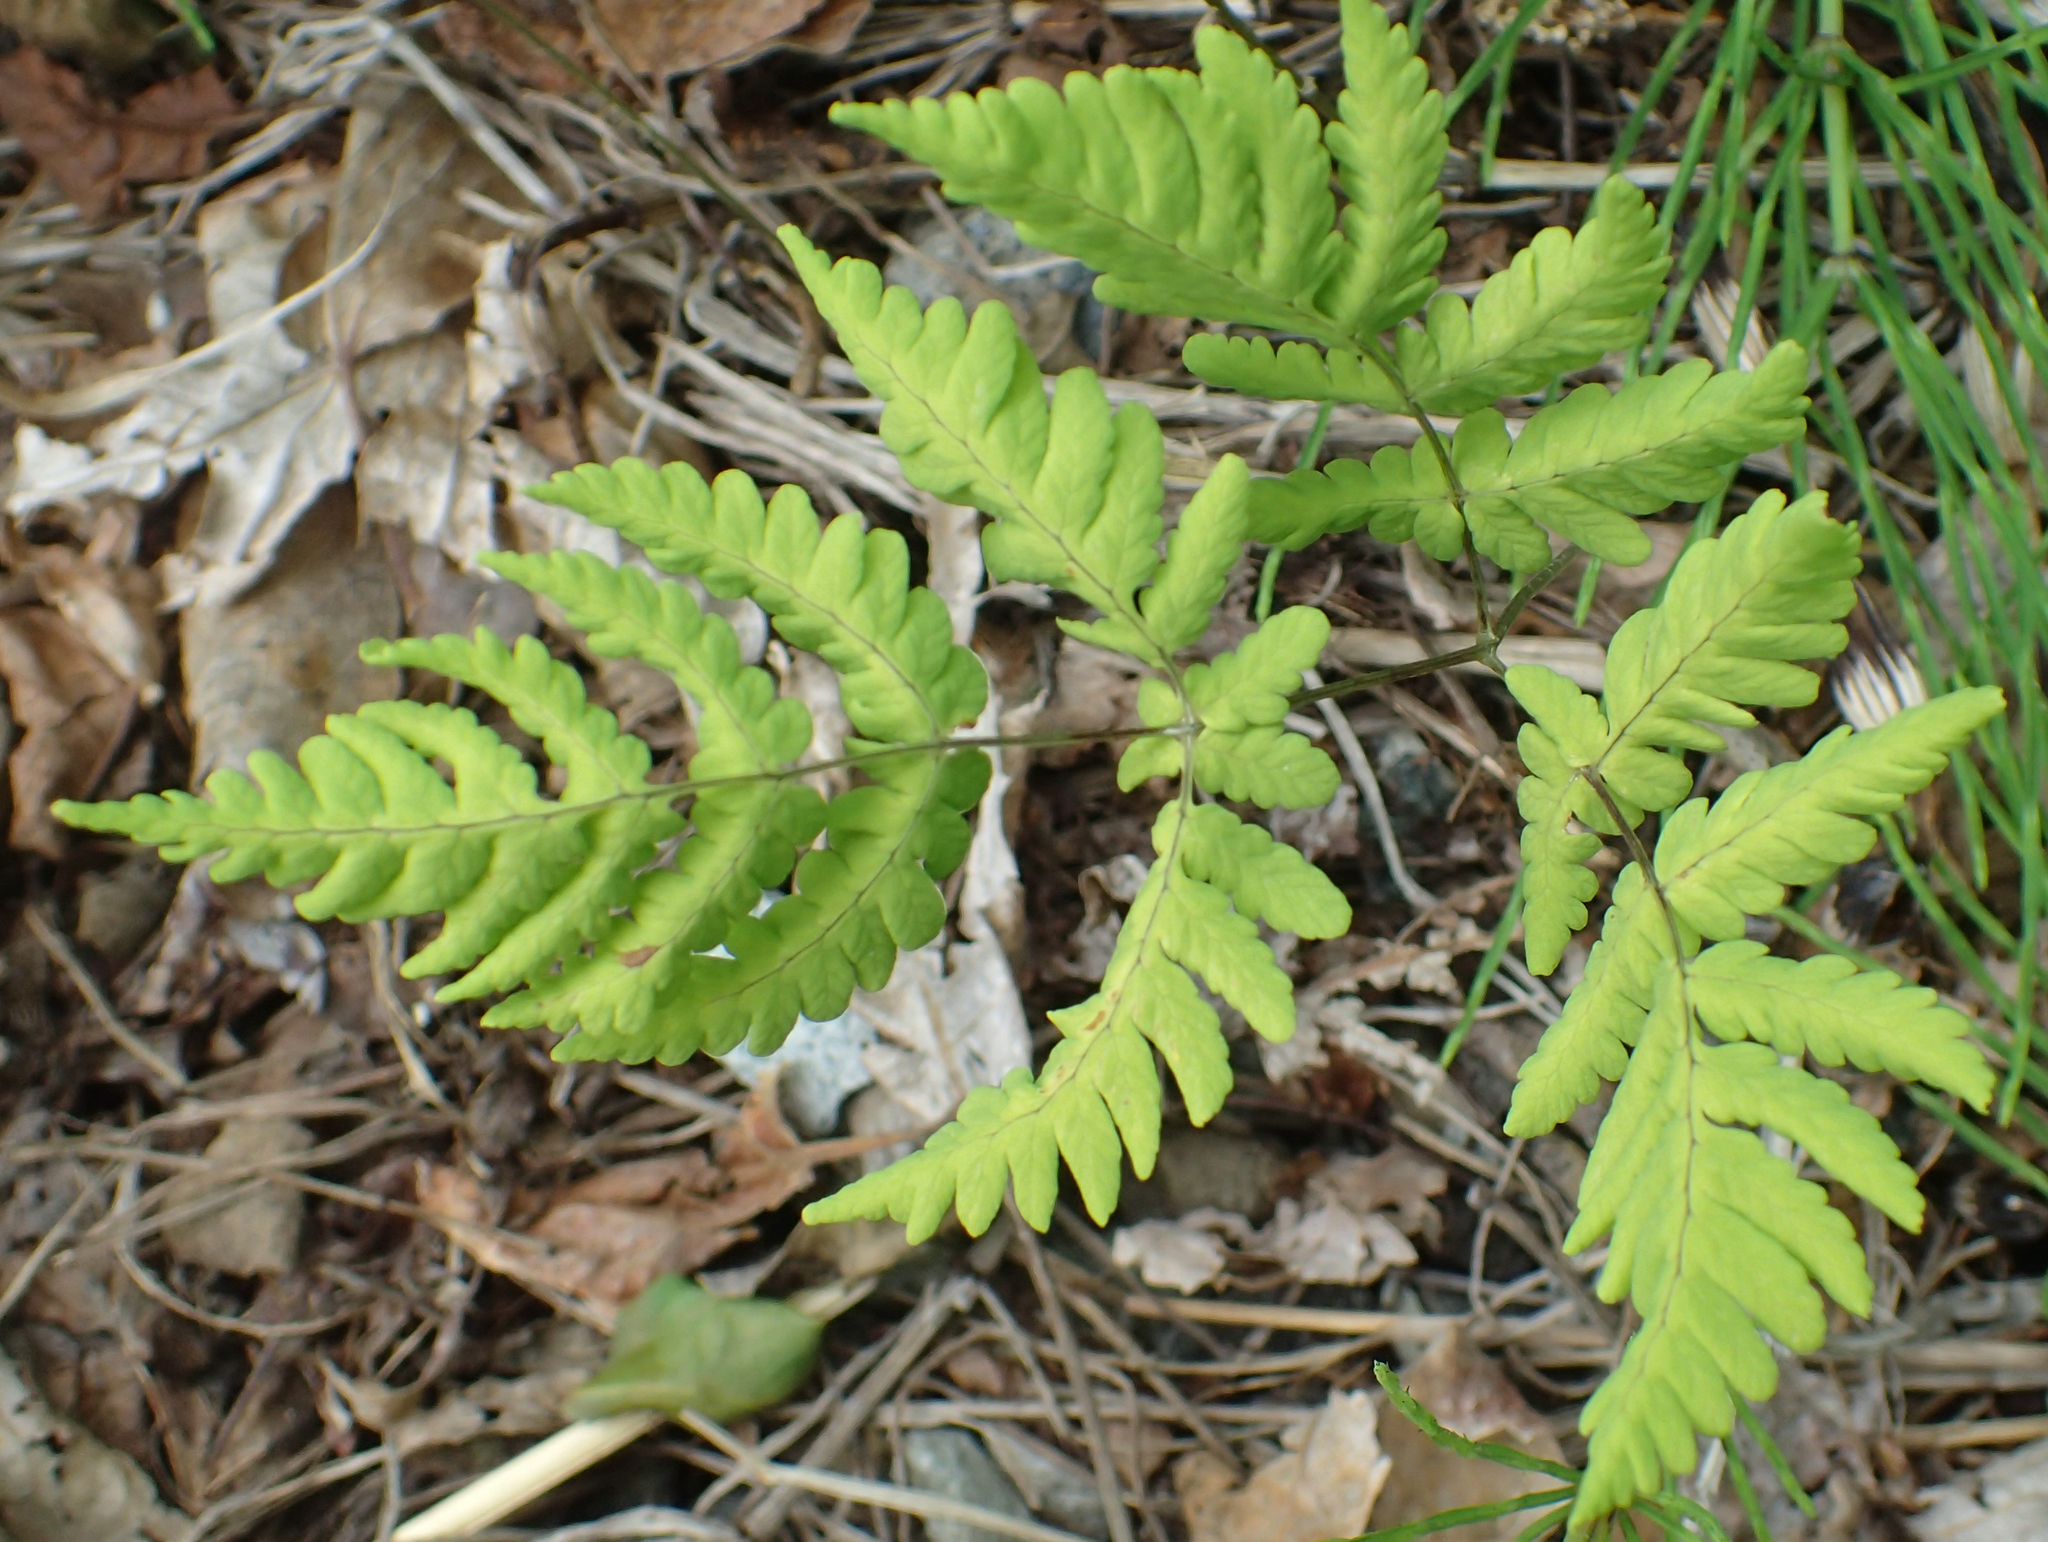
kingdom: Plantae
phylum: Tracheophyta
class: Polypodiopsida
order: Polypodiales
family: Cystopteridaceae
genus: Gymnocarpium
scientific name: Gymnocarpium dryopteris
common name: Oak fern
